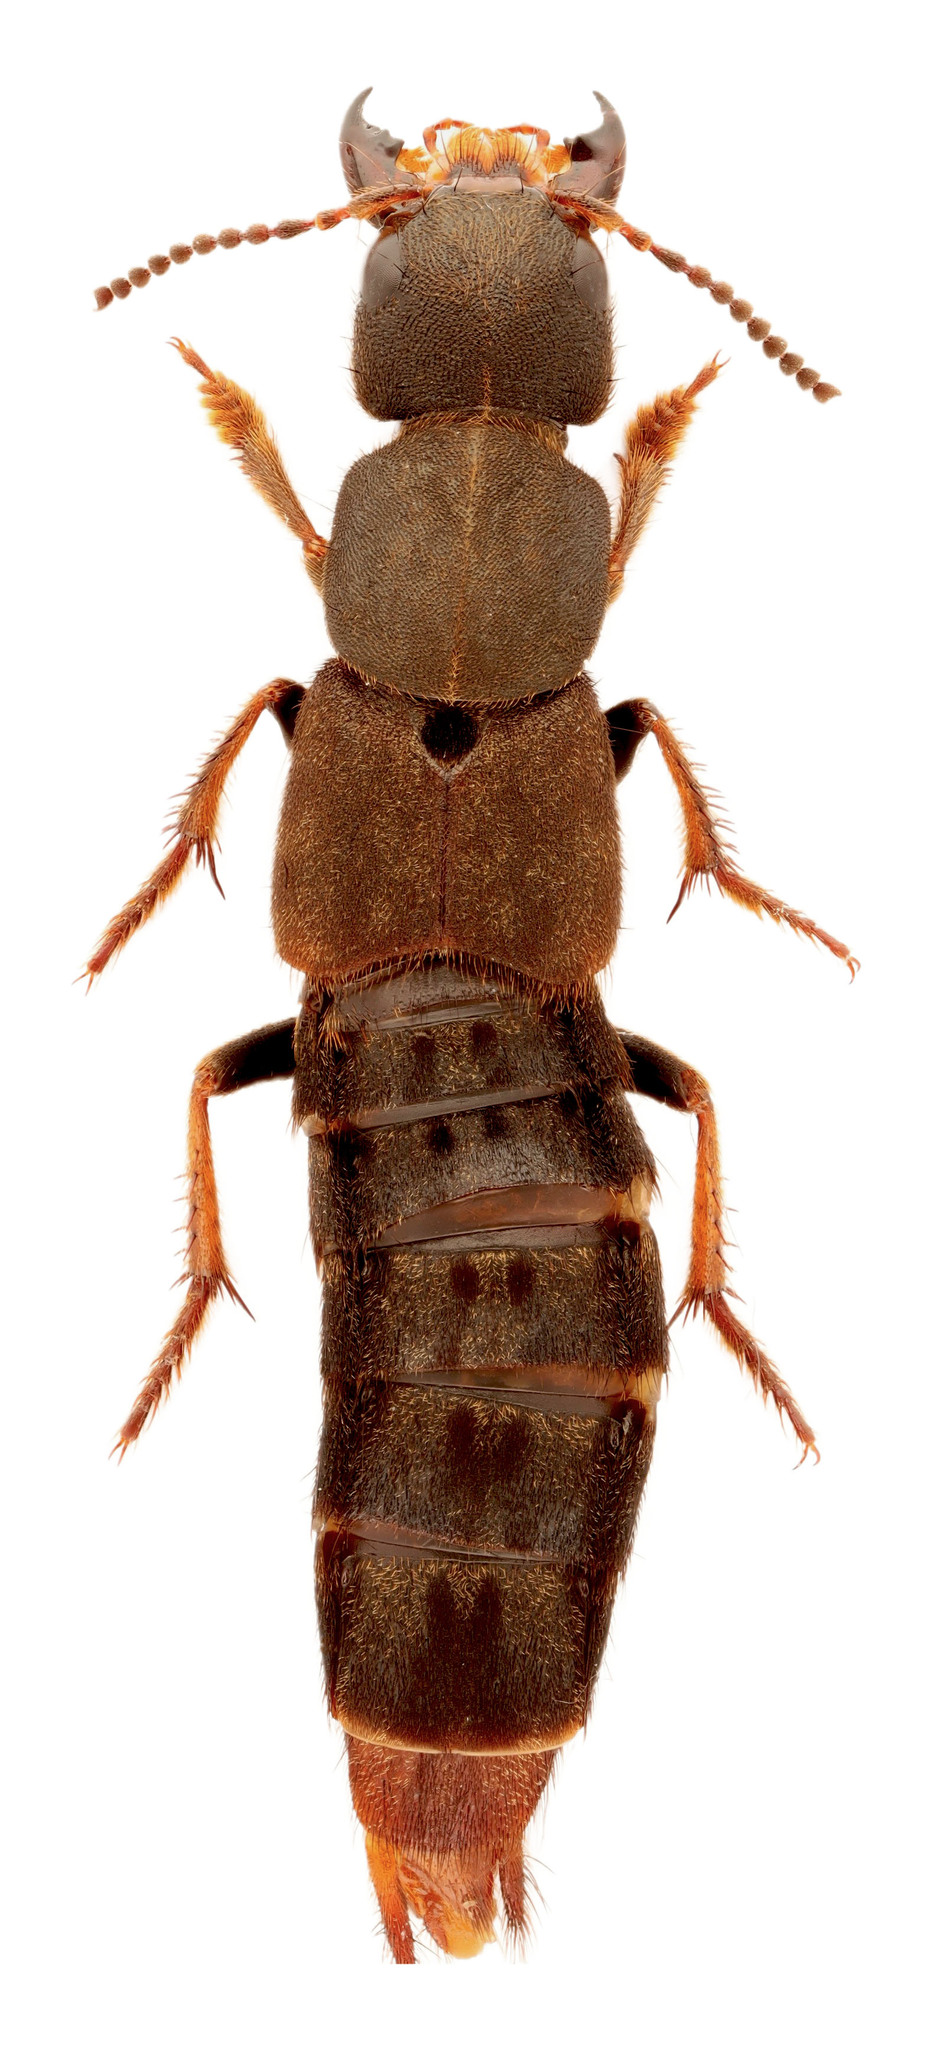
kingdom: Animalia
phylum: Arthropoda
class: Insecta
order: Coleoptera
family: Staphylinidae
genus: Platydracus
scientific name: Platydracus mysticus
